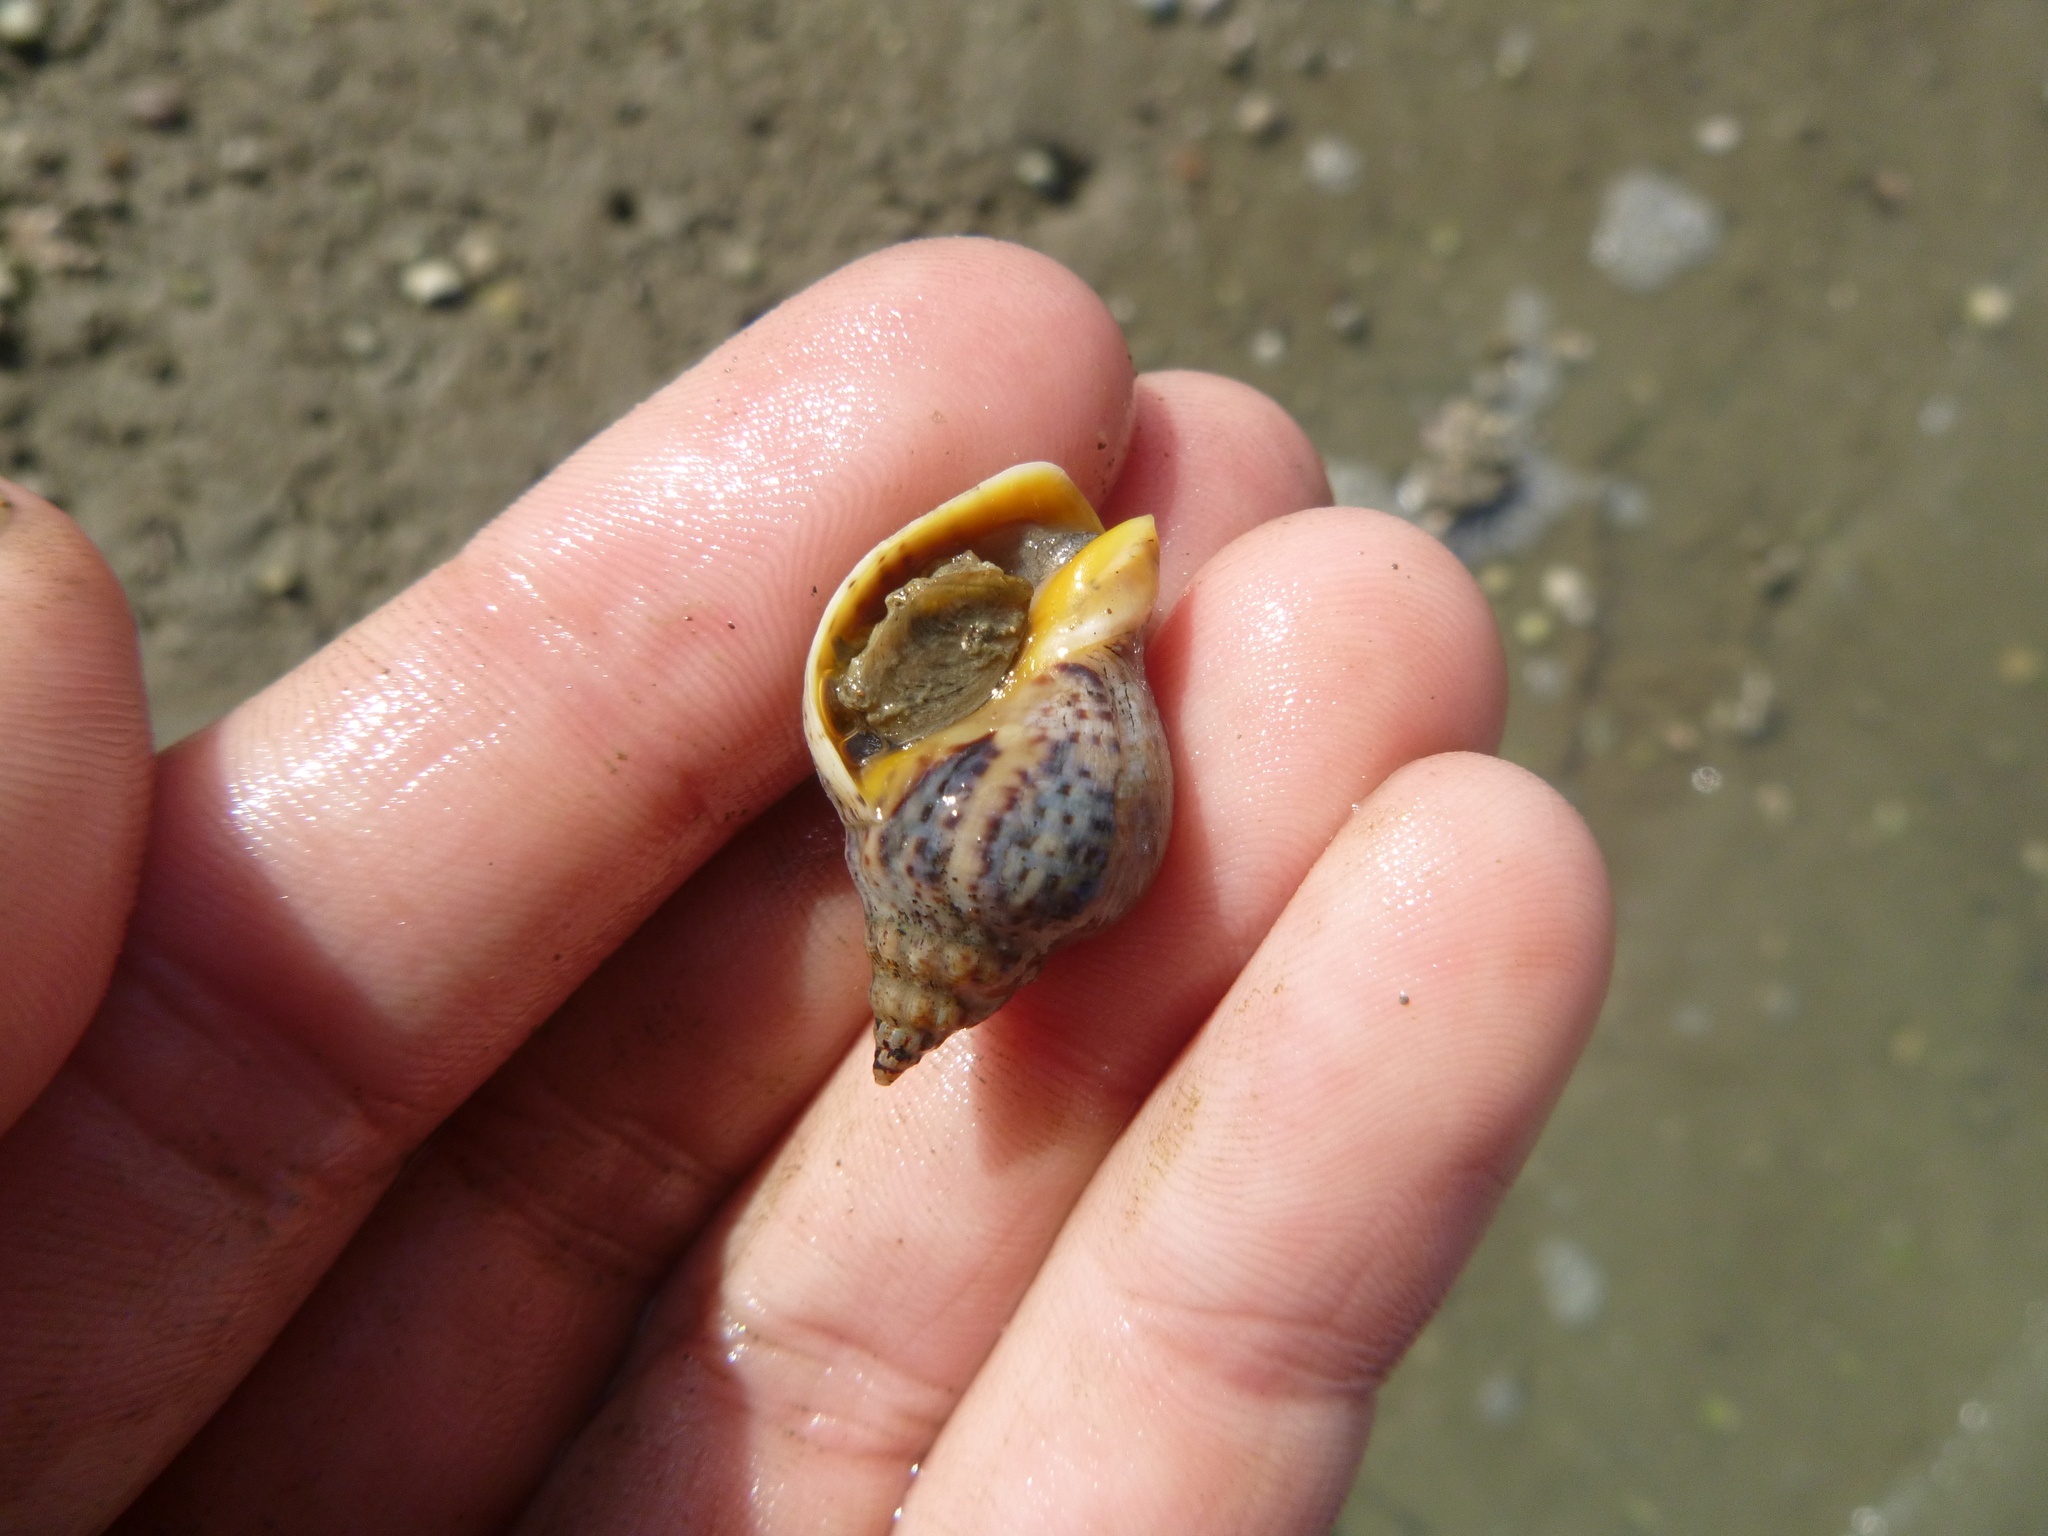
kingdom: Animalia
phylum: Mollusca
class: Gastropoda
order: Neogastropoda
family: Cominellidae
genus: Cominella
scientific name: Cominella adspersa
